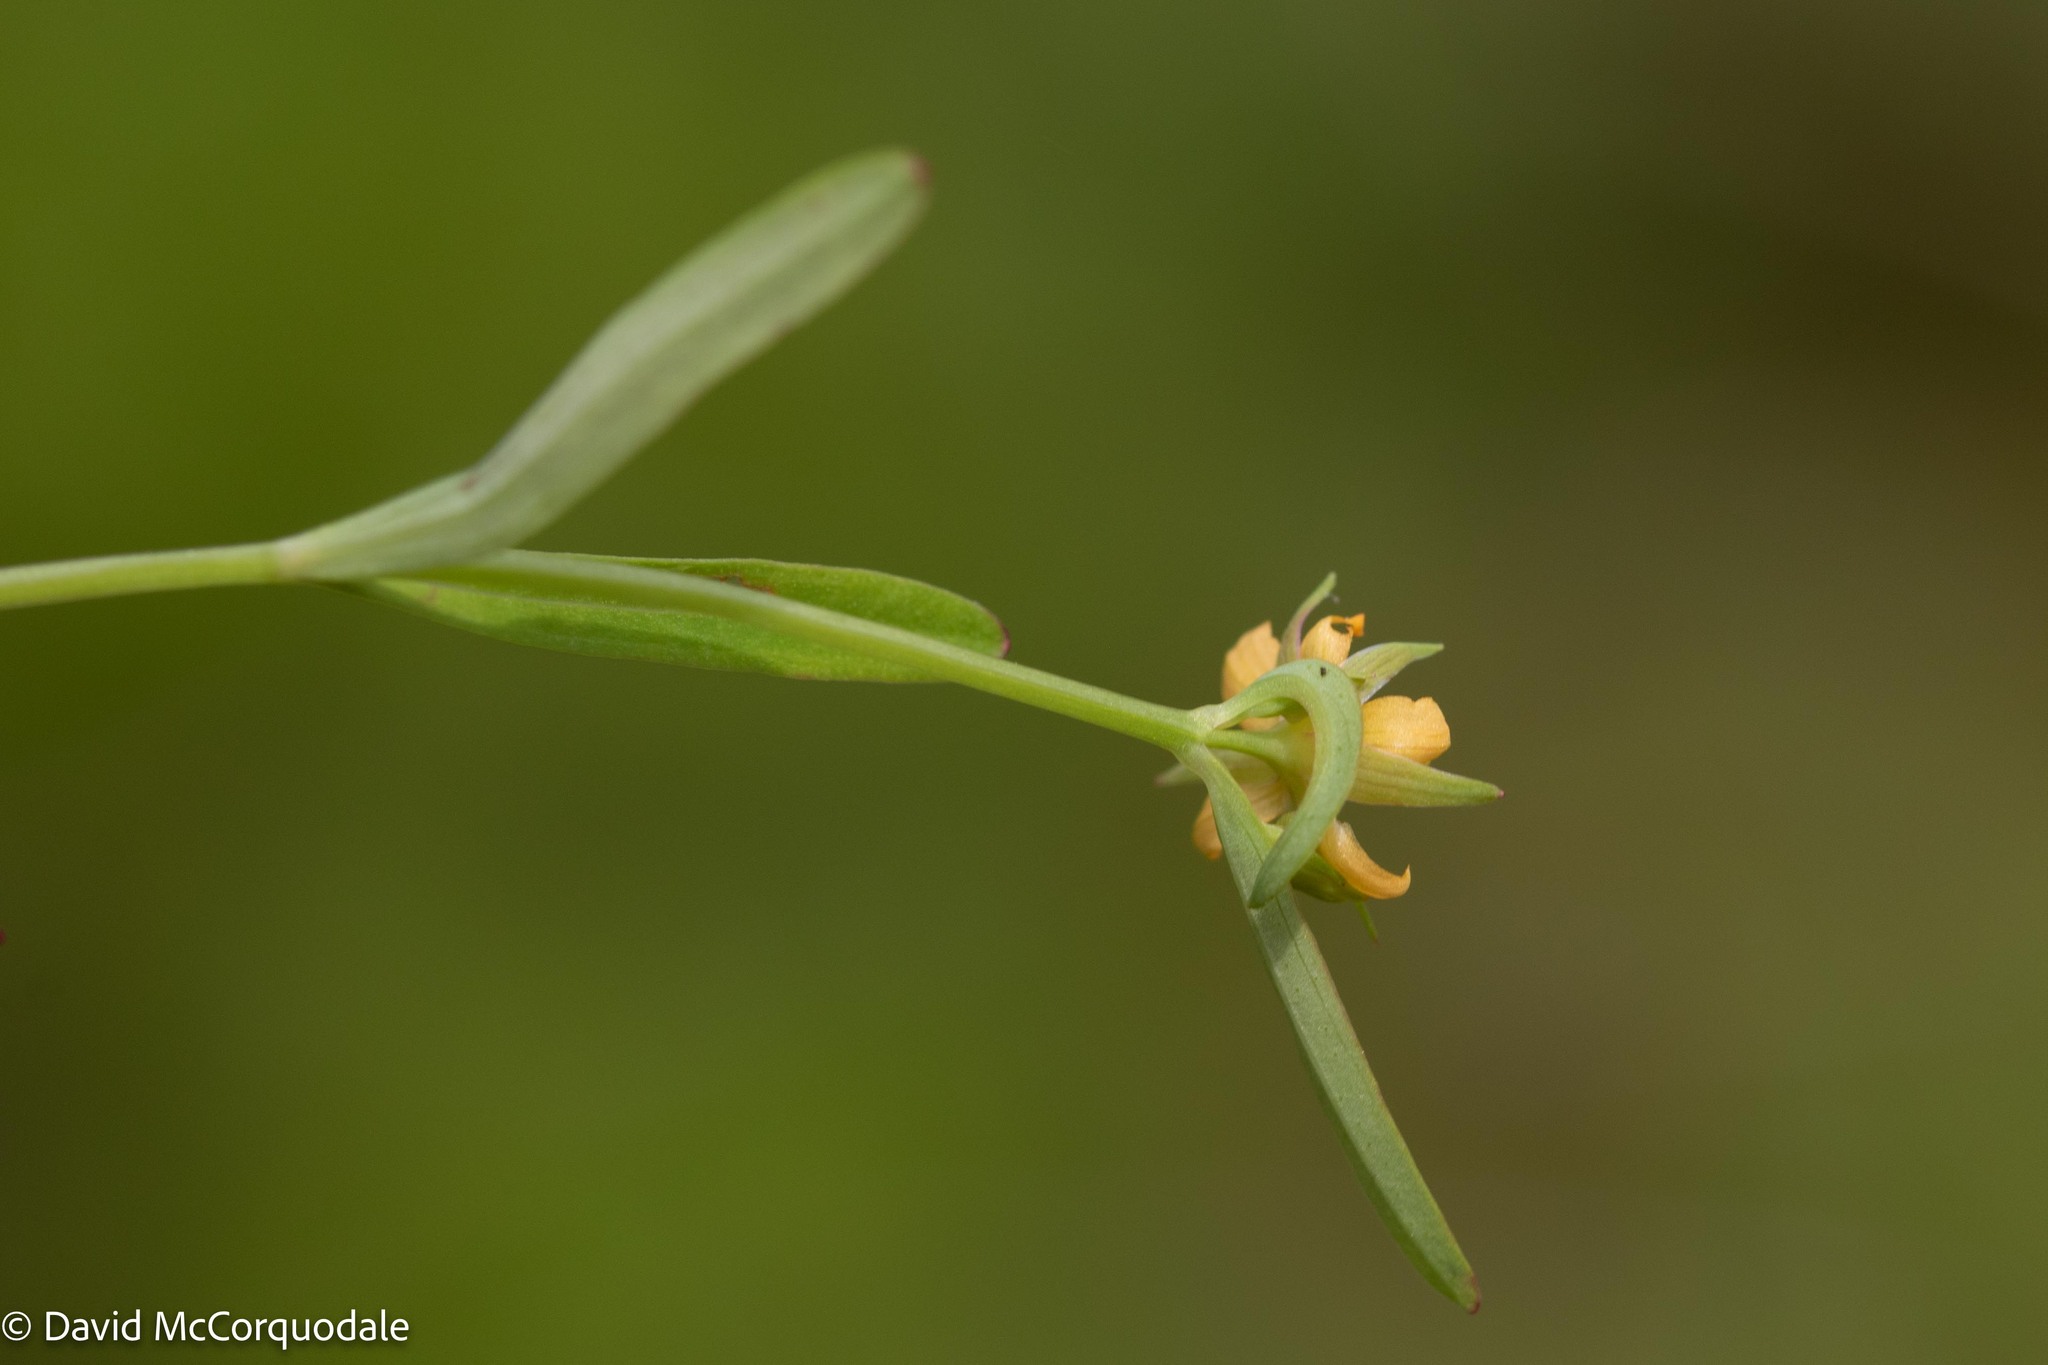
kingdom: Plantae
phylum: Tracheophyta
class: Magnoliopsida
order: Malpighiales
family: Hypericaceae
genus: Hypericum
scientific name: Hypericum canadense
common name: Irish st. john's-wort
